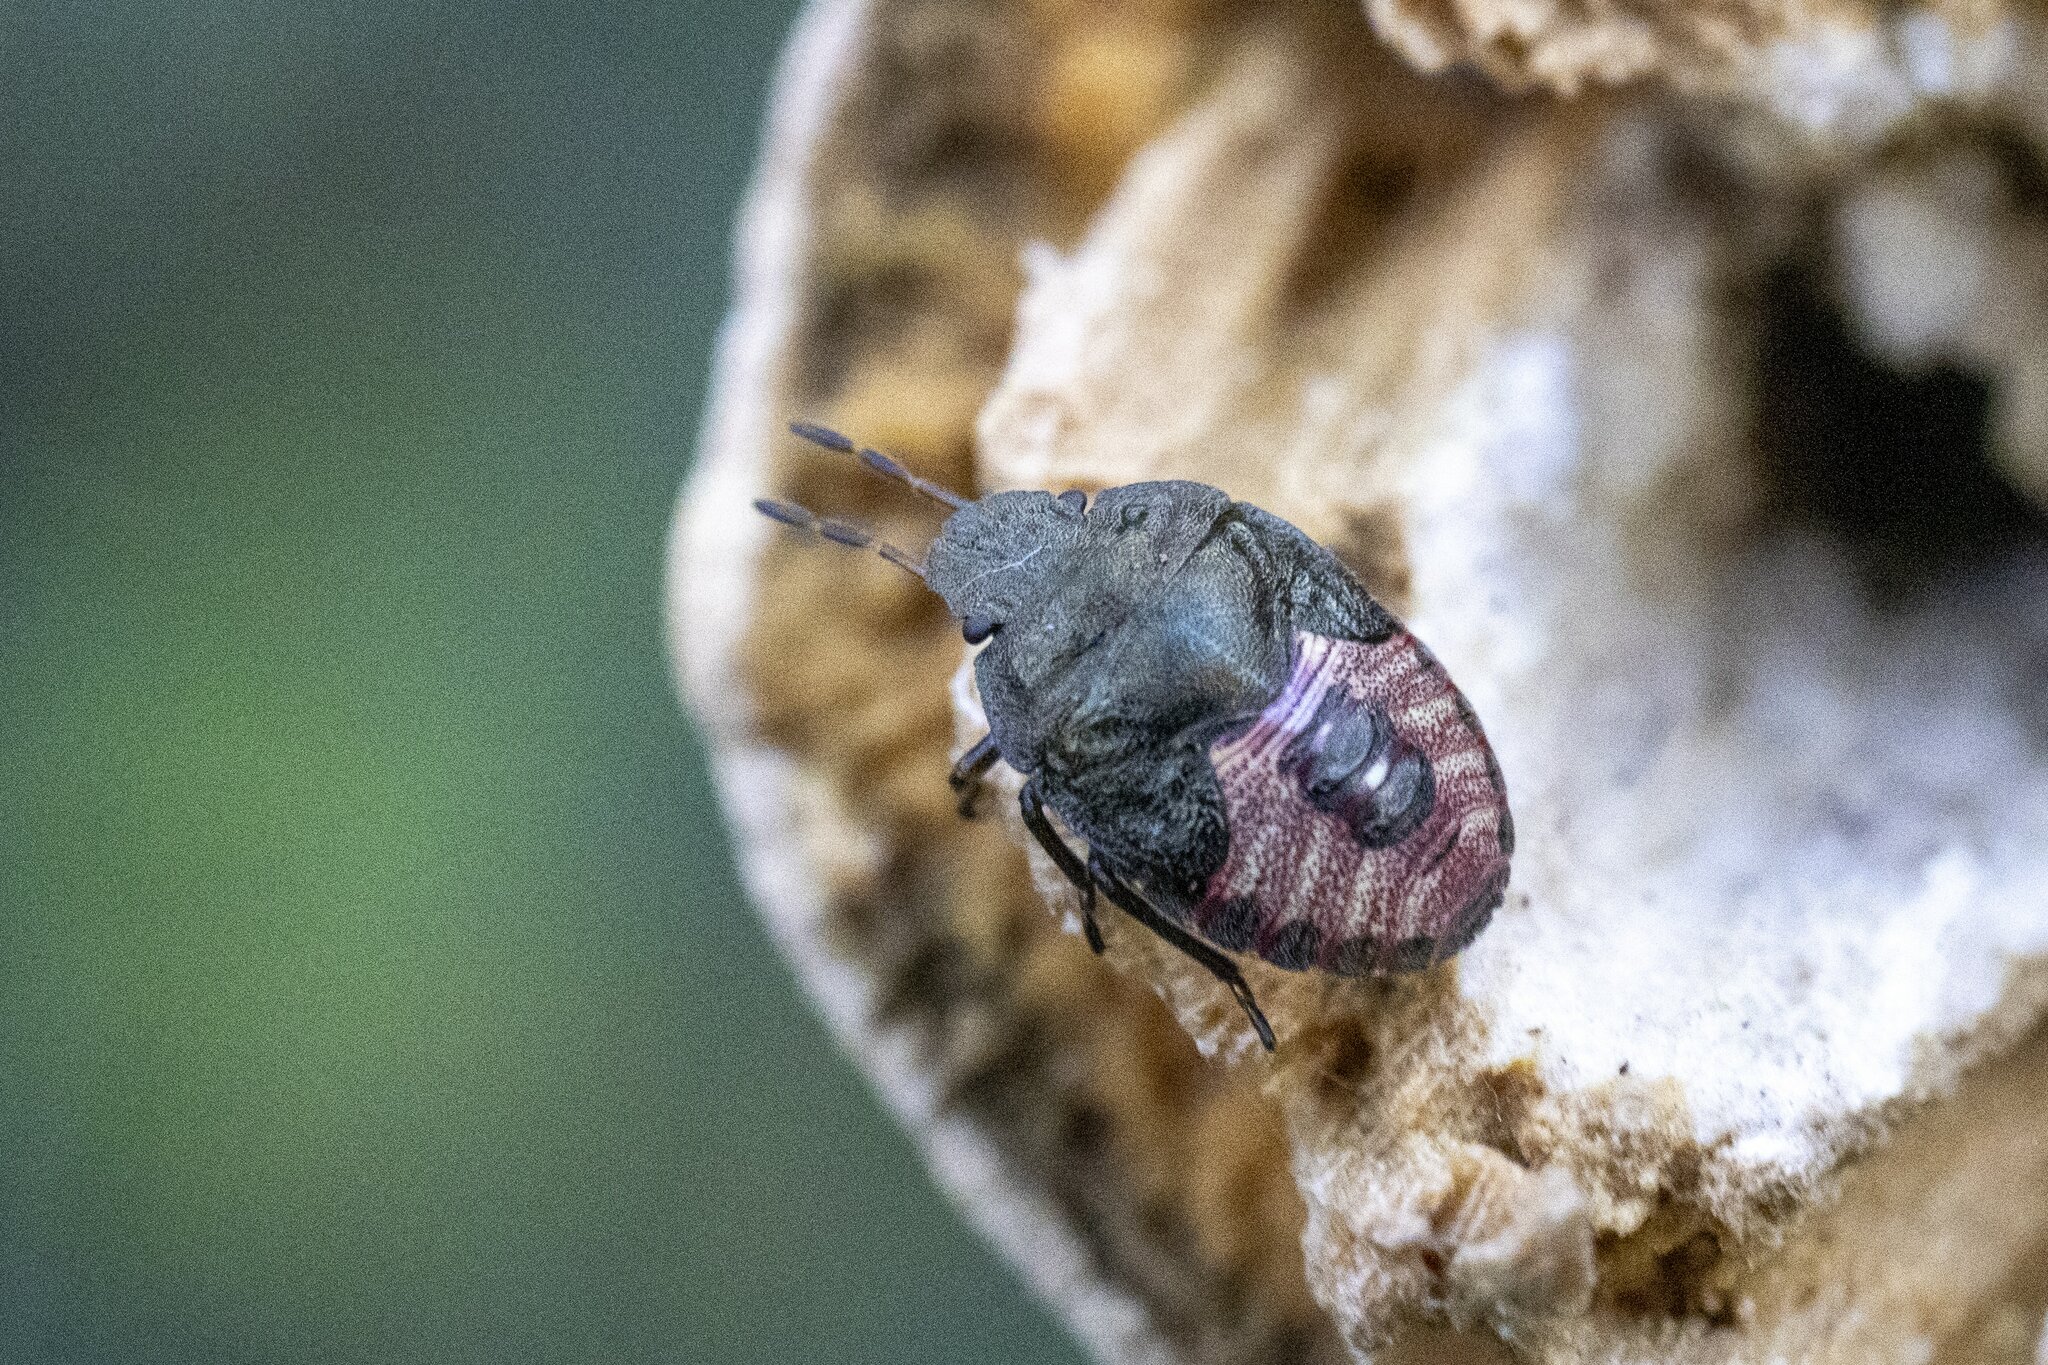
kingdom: Animalia
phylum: Arthropoda
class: Insecta
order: Hemiptera
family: Pentatomidae
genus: Holcostethus
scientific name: Holcostethus strictus
